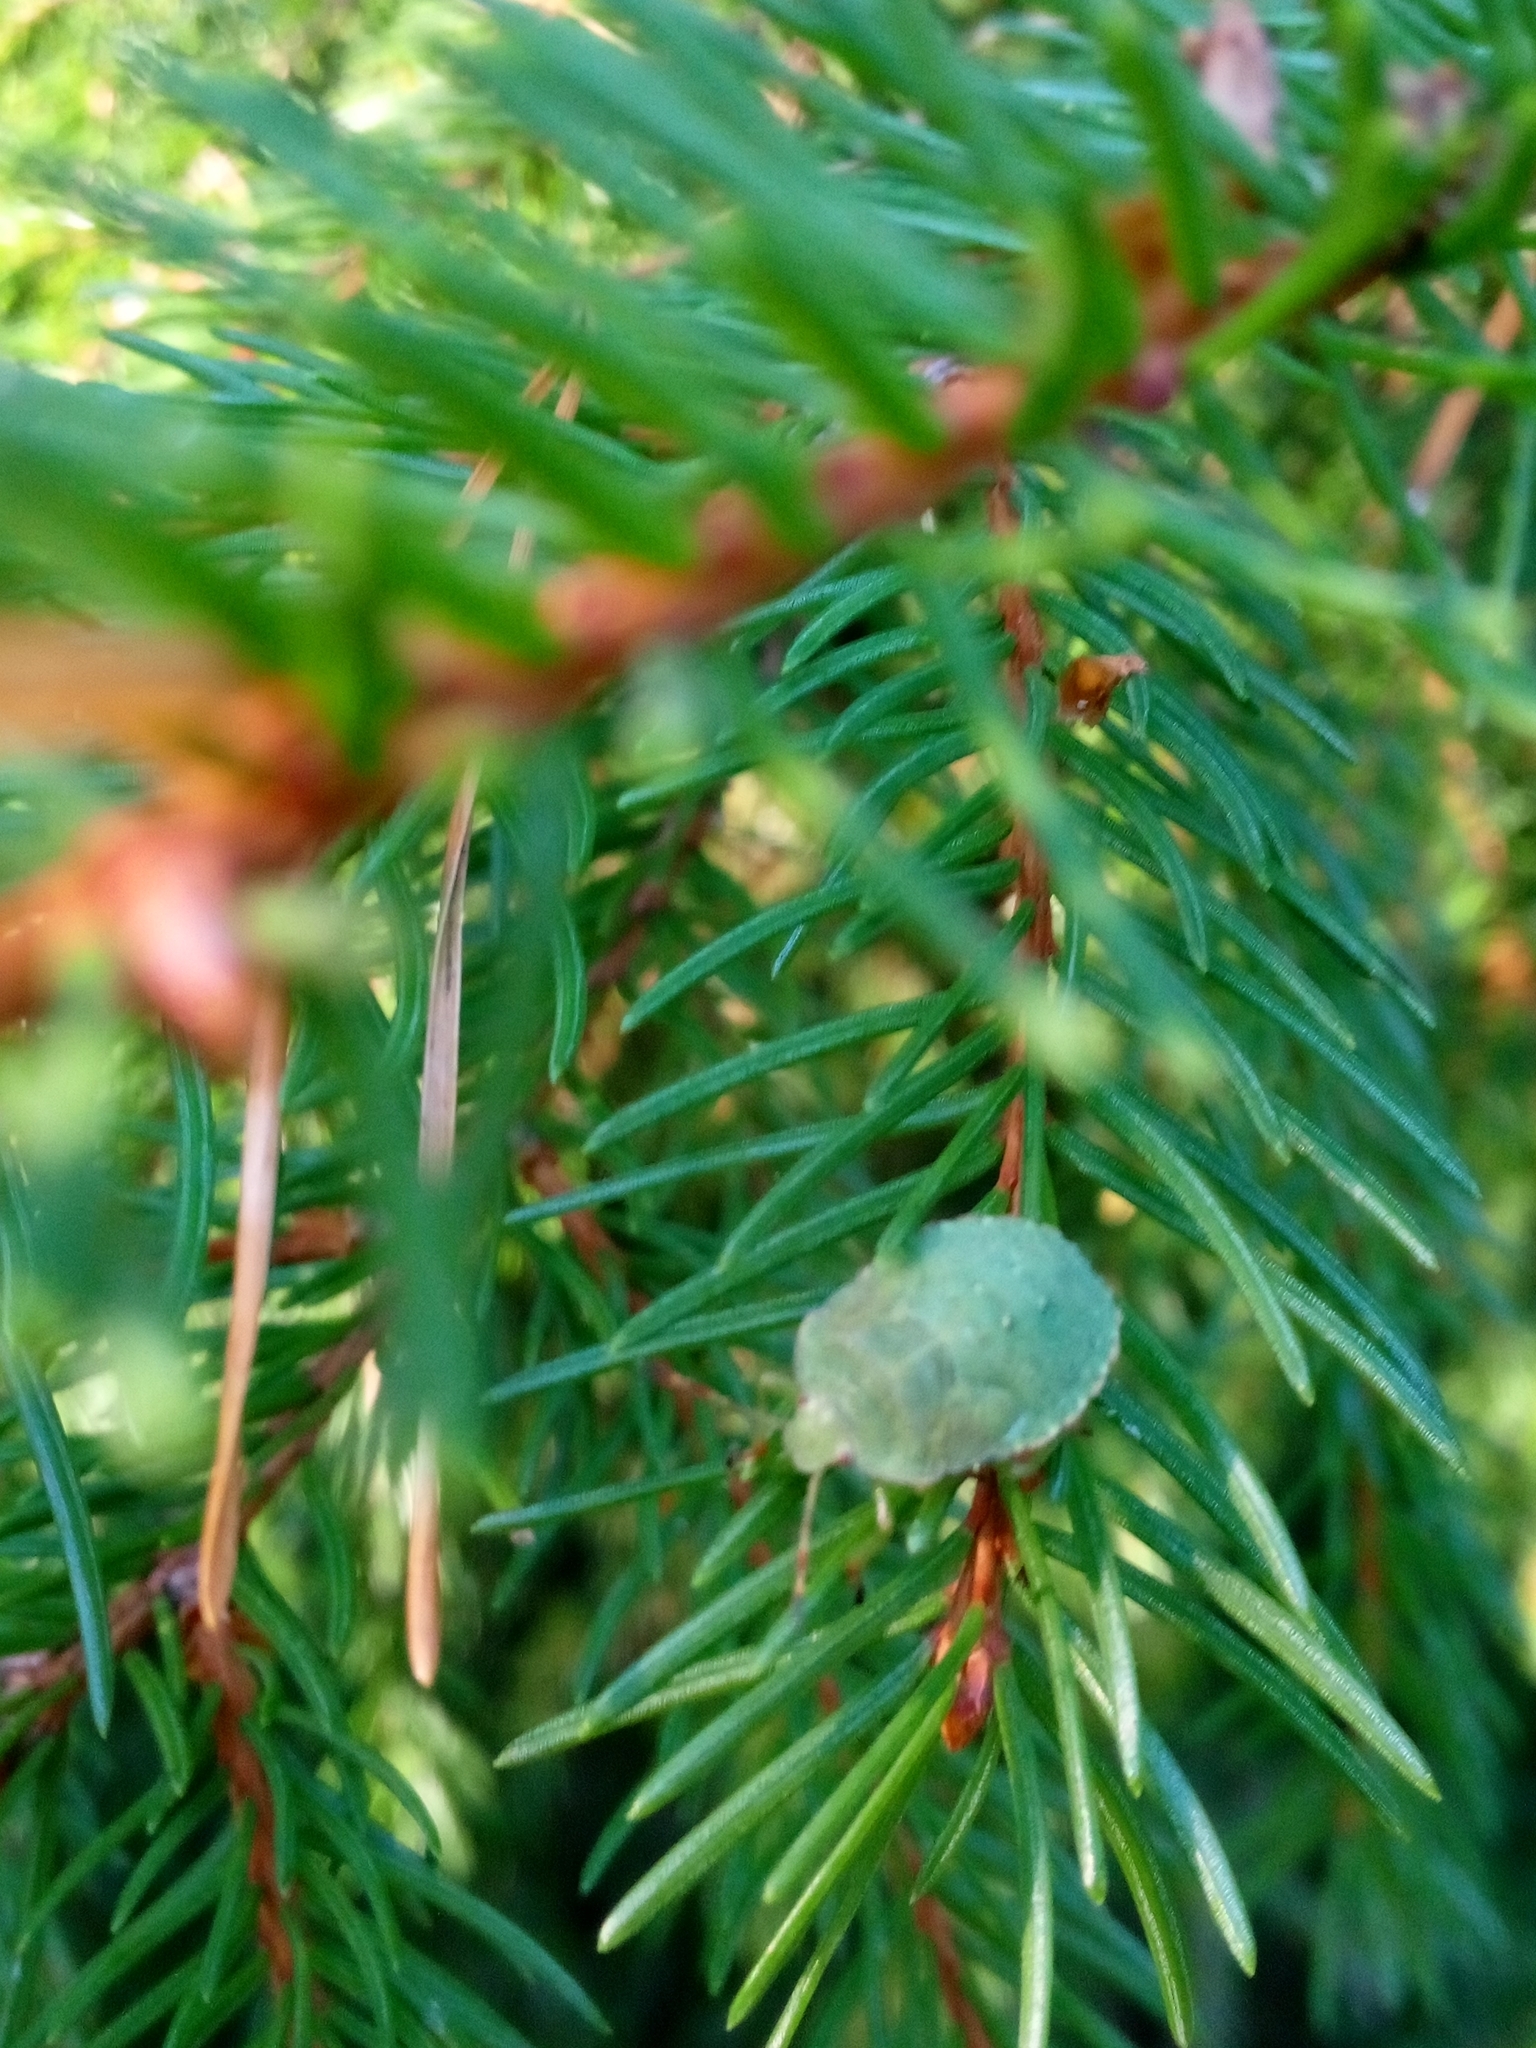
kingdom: Animalia
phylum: Arthropoda
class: Insecta
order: Hemiptera
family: Pentatomidae
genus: Palomena
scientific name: Palomena prasina
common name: Green shieldbug
